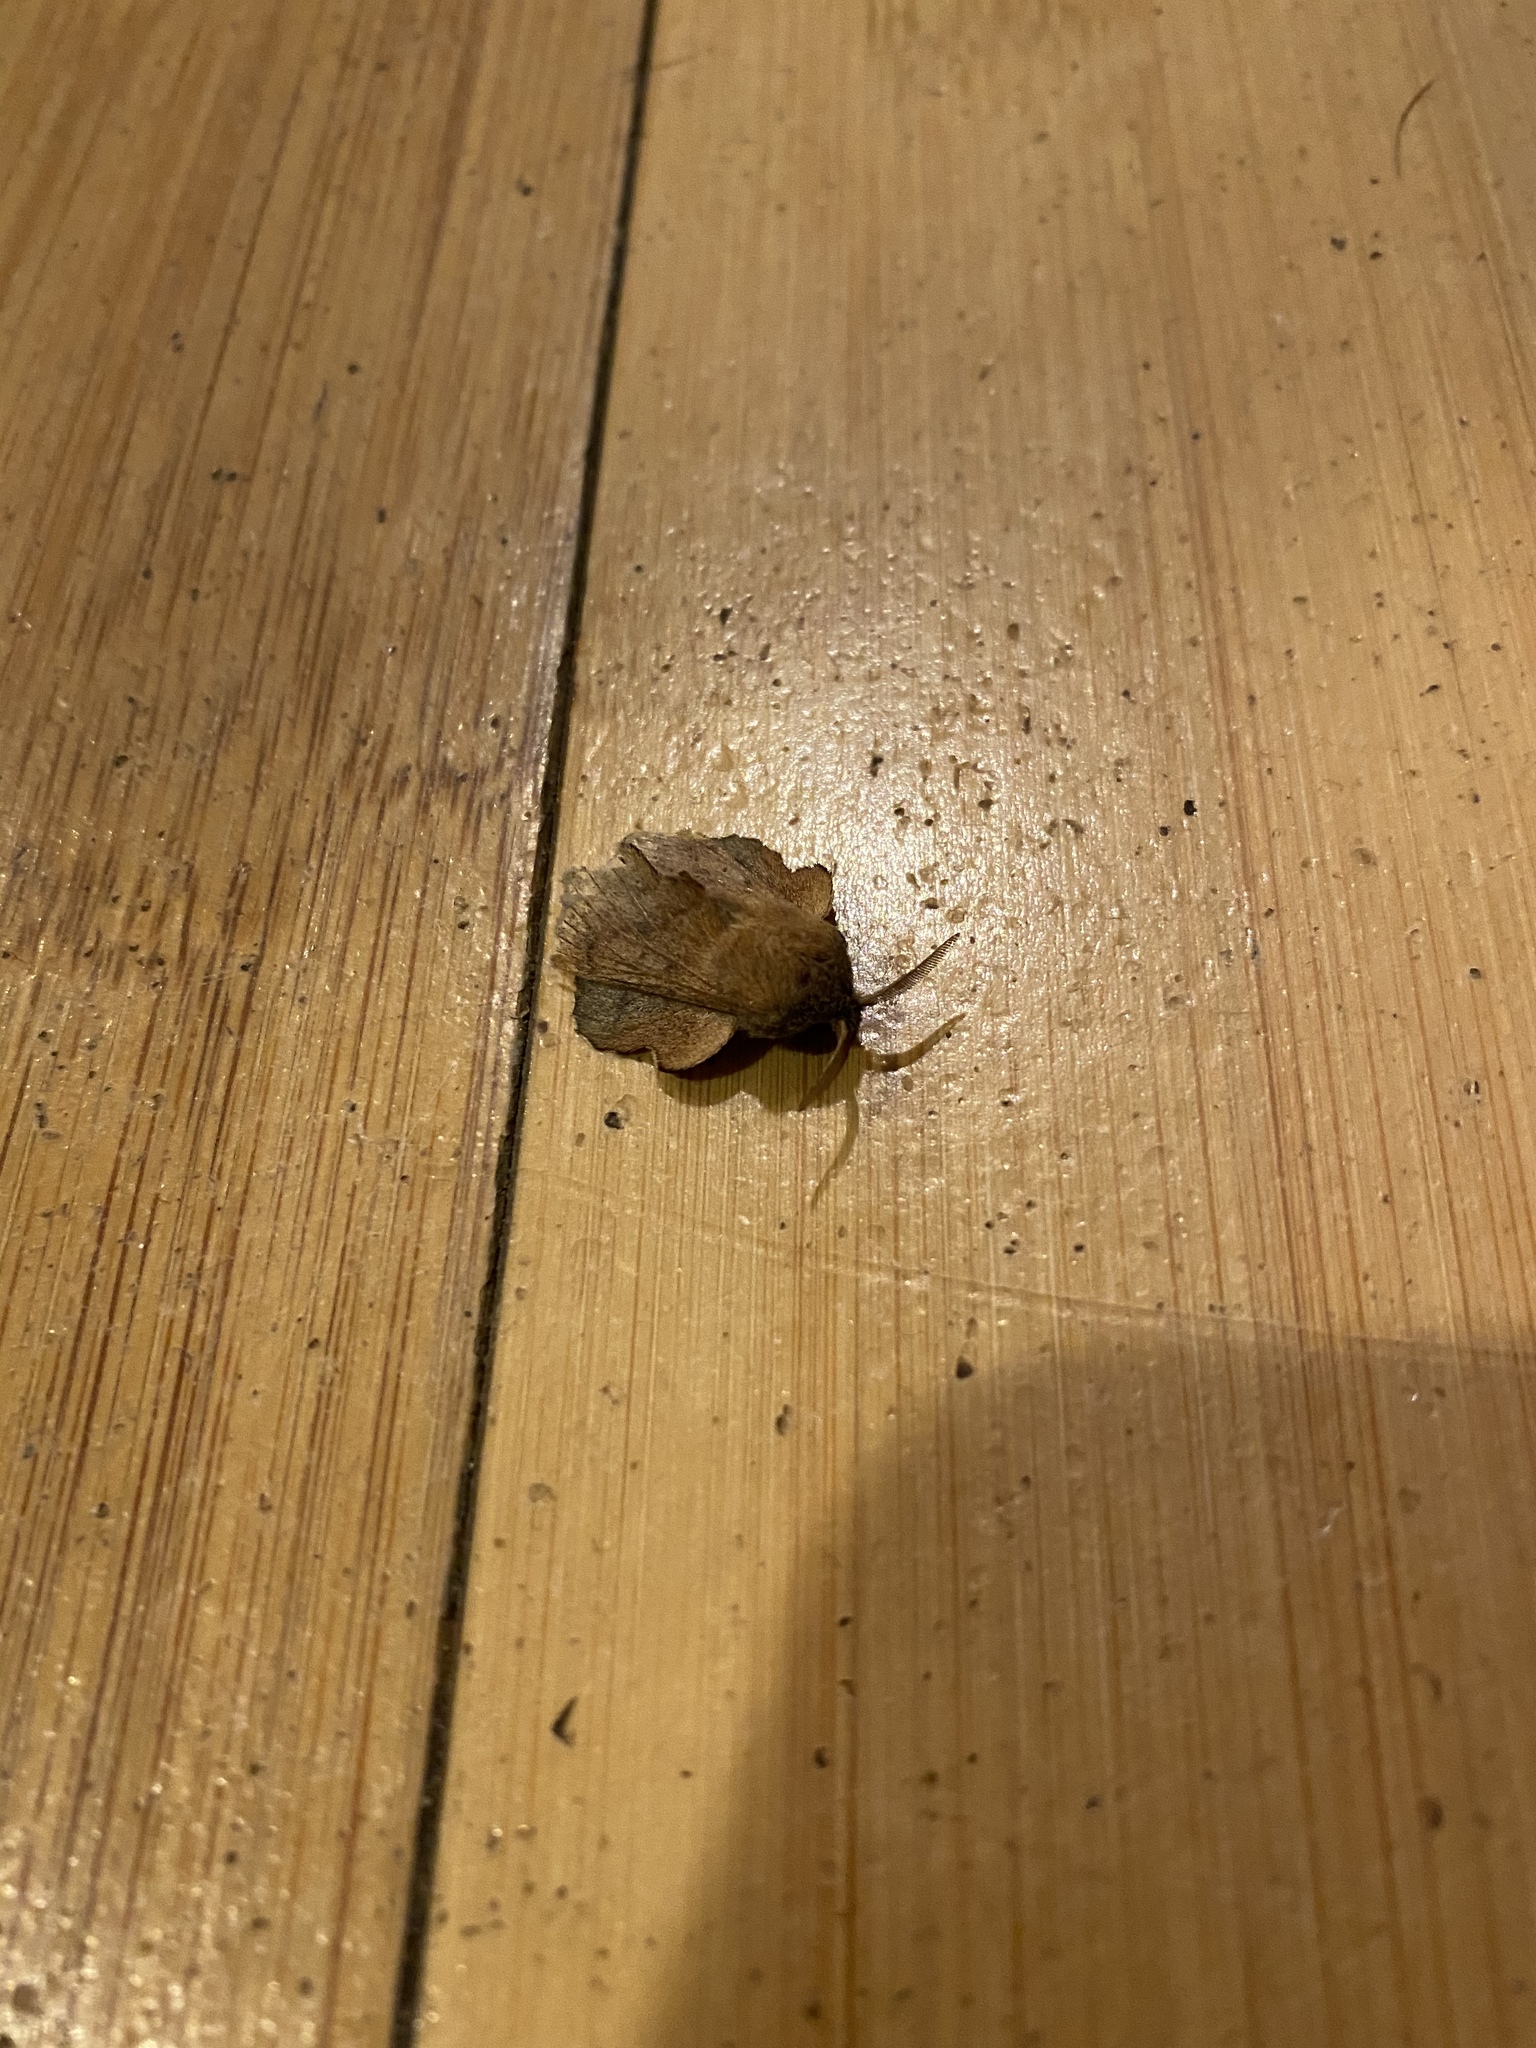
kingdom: Animalia
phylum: Arthropoda
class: Insecta
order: Lepidoptera
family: Lasiocampidae
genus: Phyllodesma
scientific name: Phyllodesma americana
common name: American lappet moth
